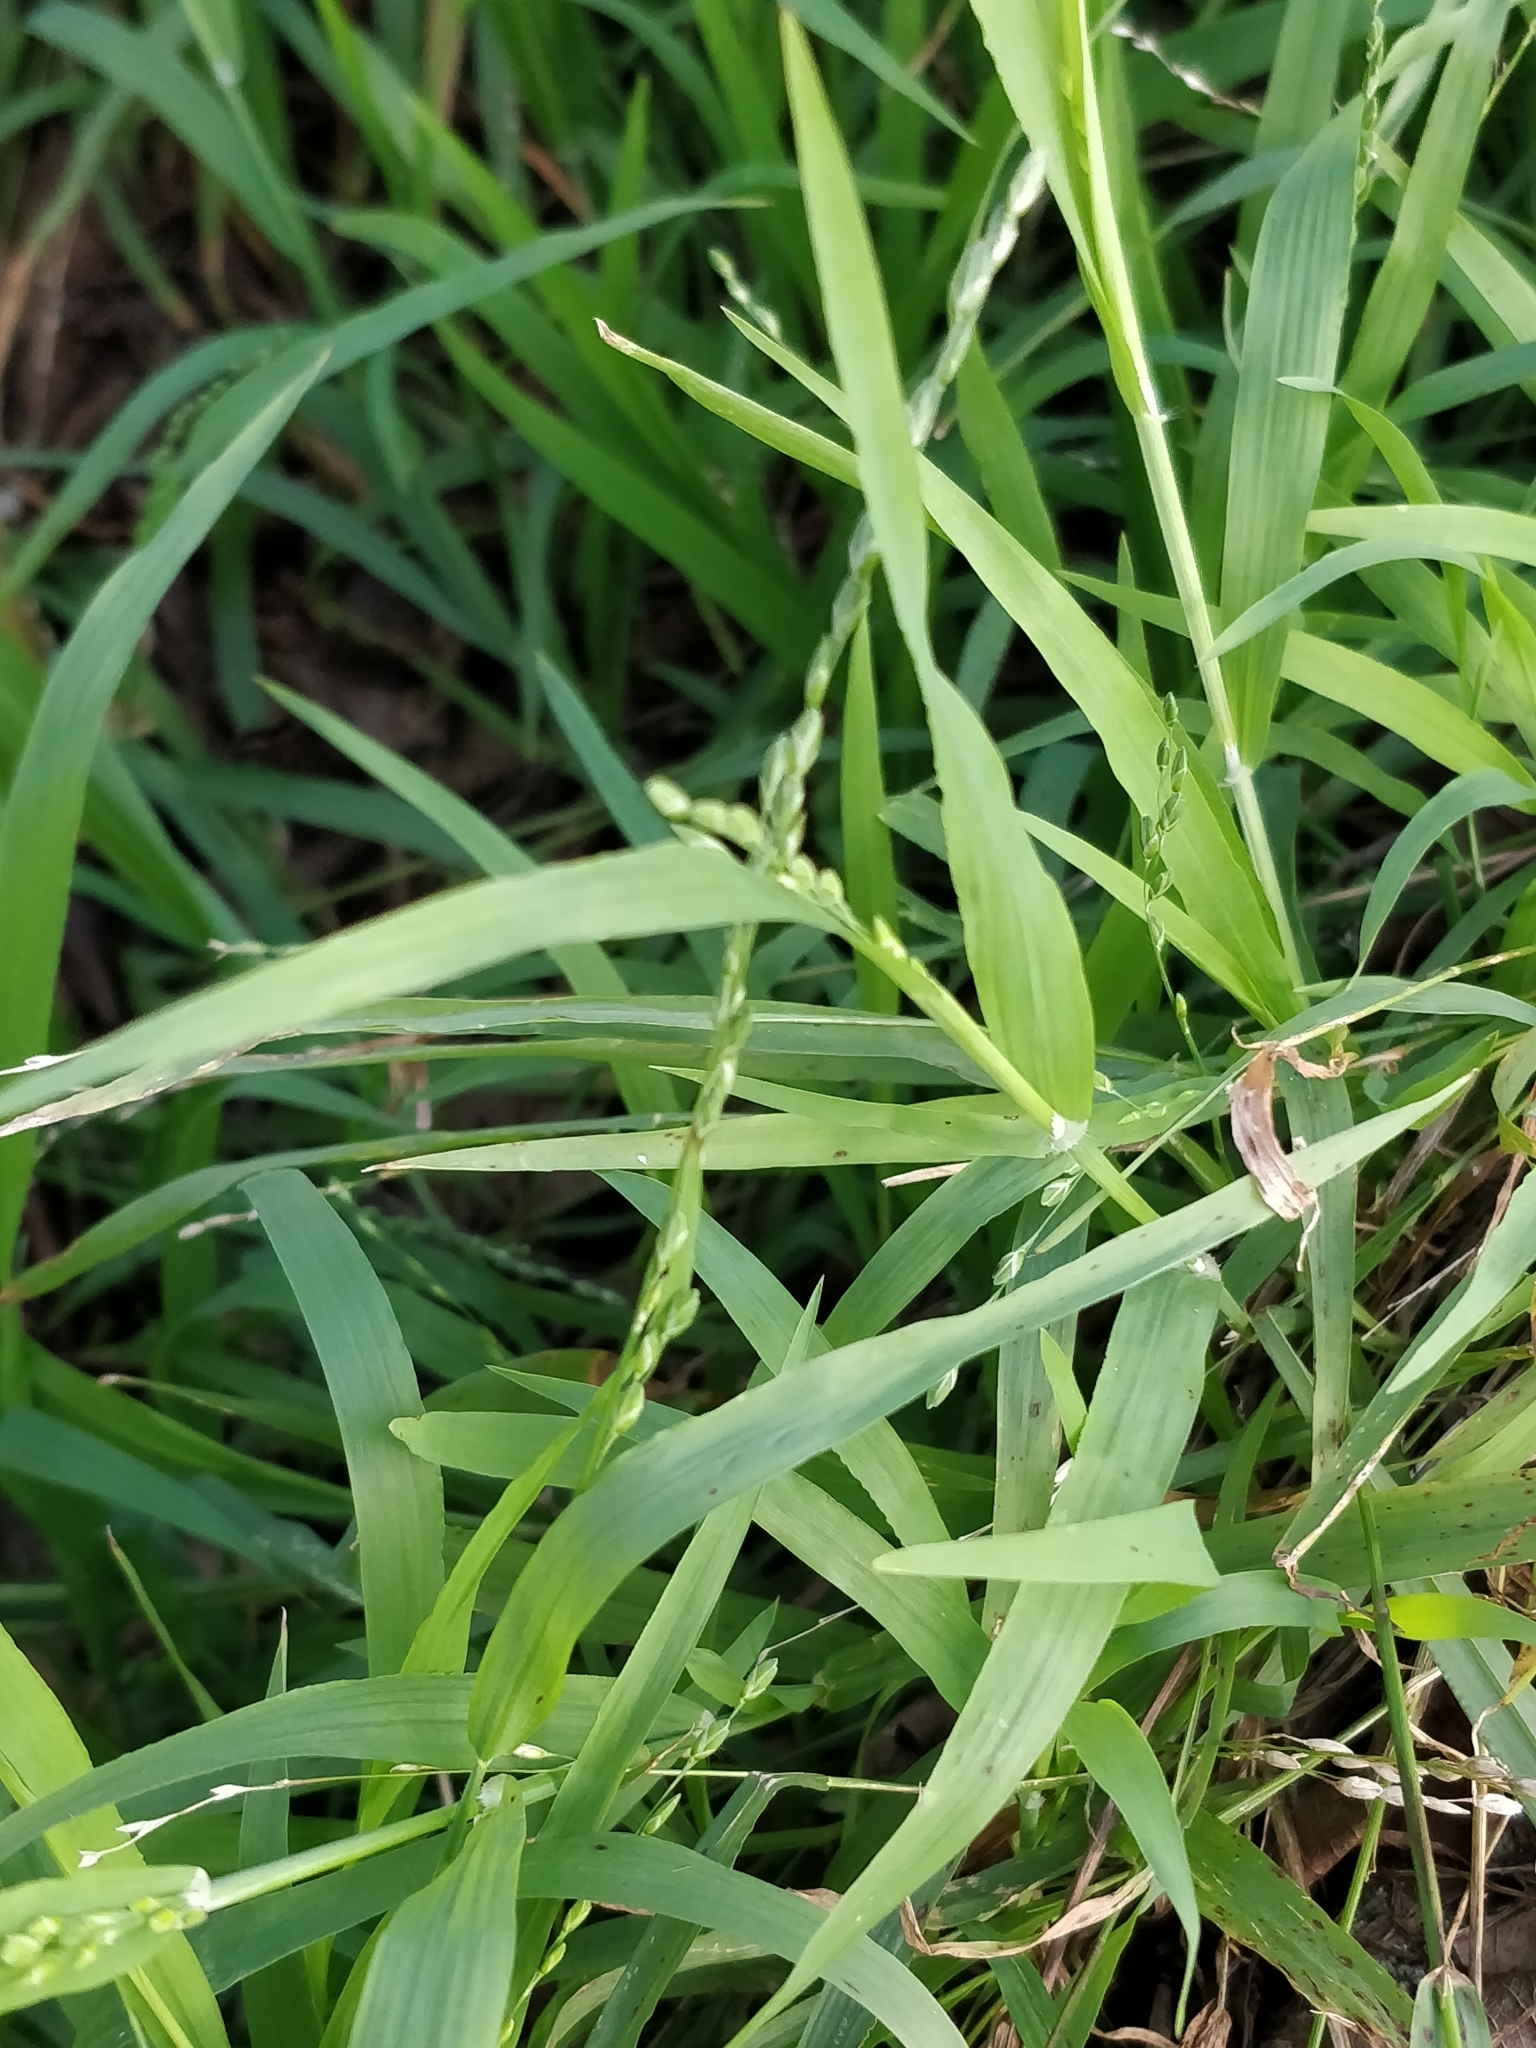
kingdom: Plantae
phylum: Tracheophyta
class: Liliopsida
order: Poales
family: Poaceae
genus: Ehrharta
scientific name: Ehrharta erecta
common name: Panic veldtgrass
